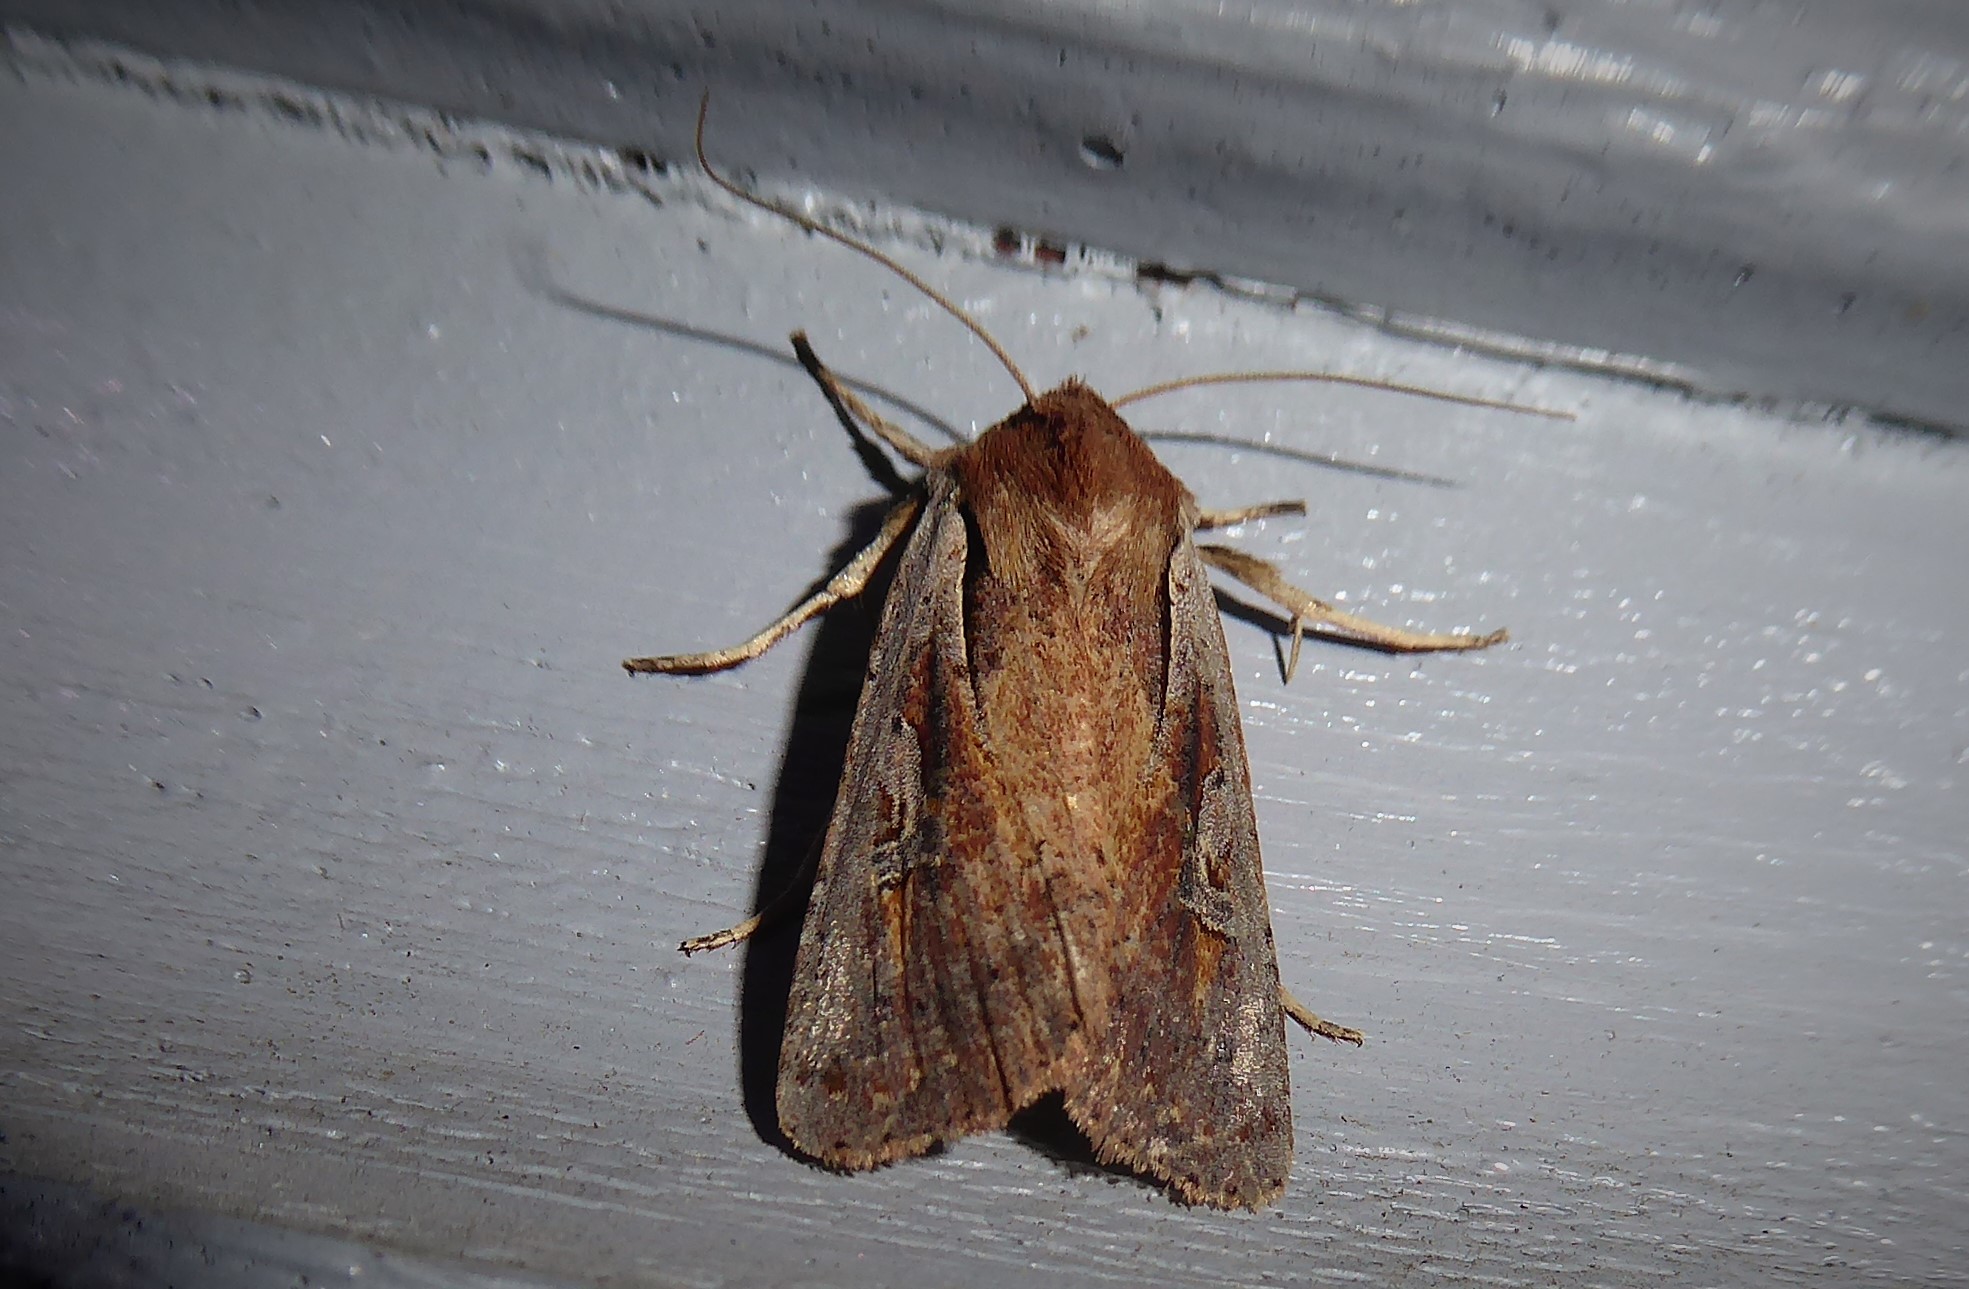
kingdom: Animalia
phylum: Arthropoda
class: Insecta
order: Lepidoptera
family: Noctuidae
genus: Ichneutica
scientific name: Ichneutica atristriga
